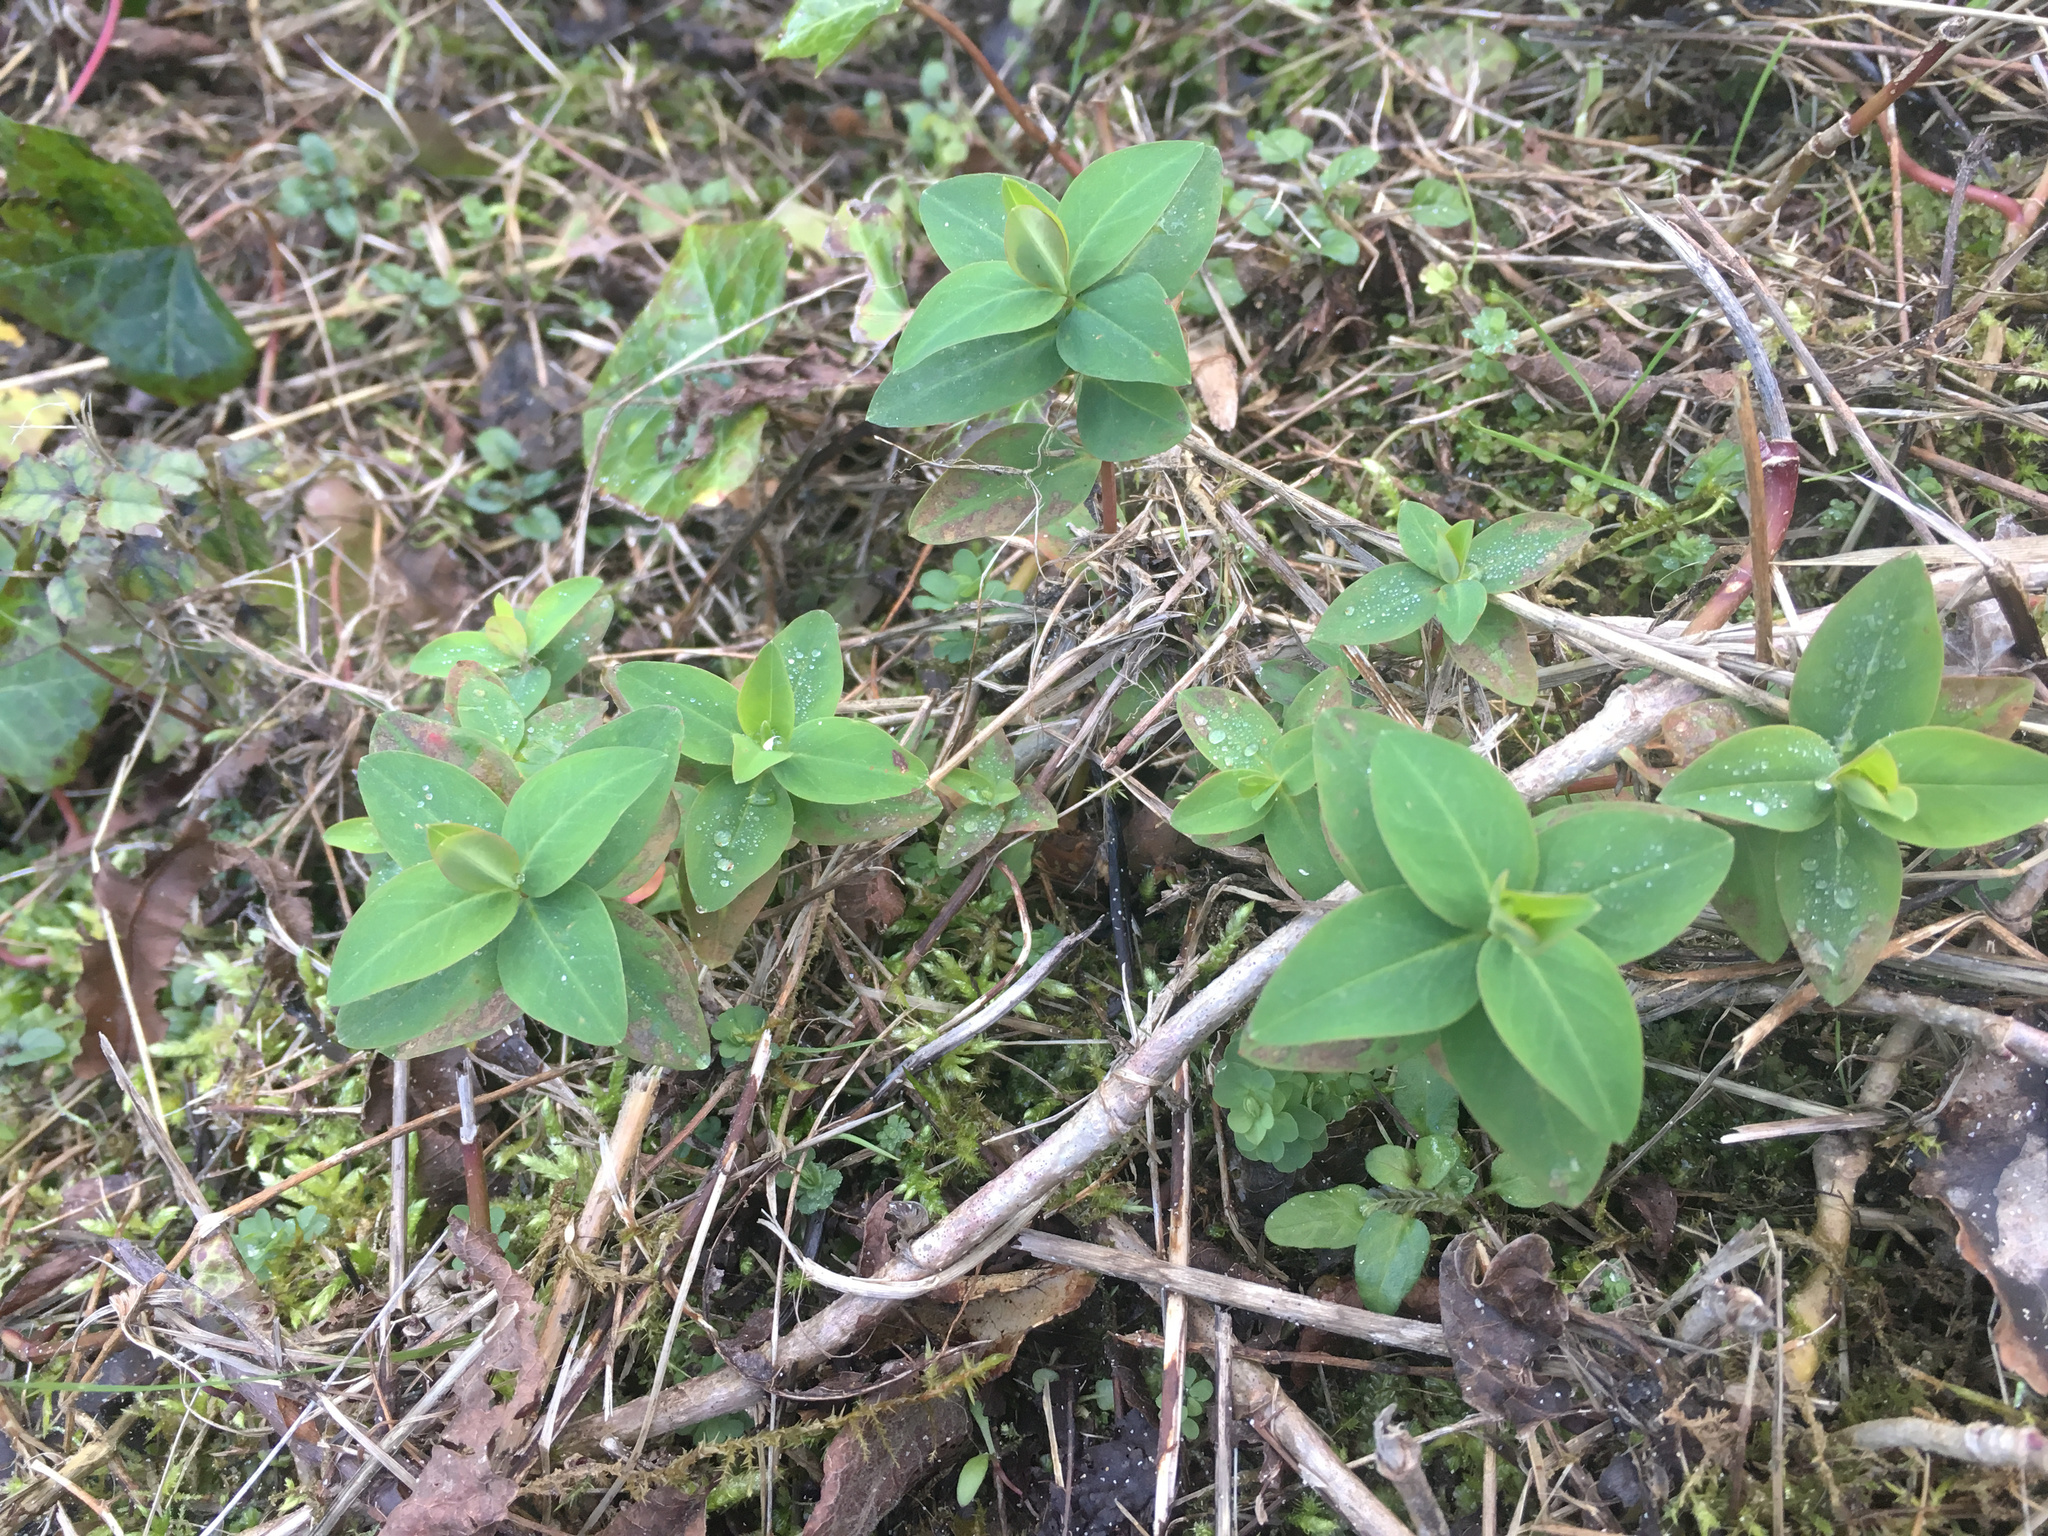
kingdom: Plantae
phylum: Tracheophyta
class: Magnoliopsida
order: Malpighiales
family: Hypericaceae
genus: Hypericum
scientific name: Hypericum androsaemum
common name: Sweet-amber
